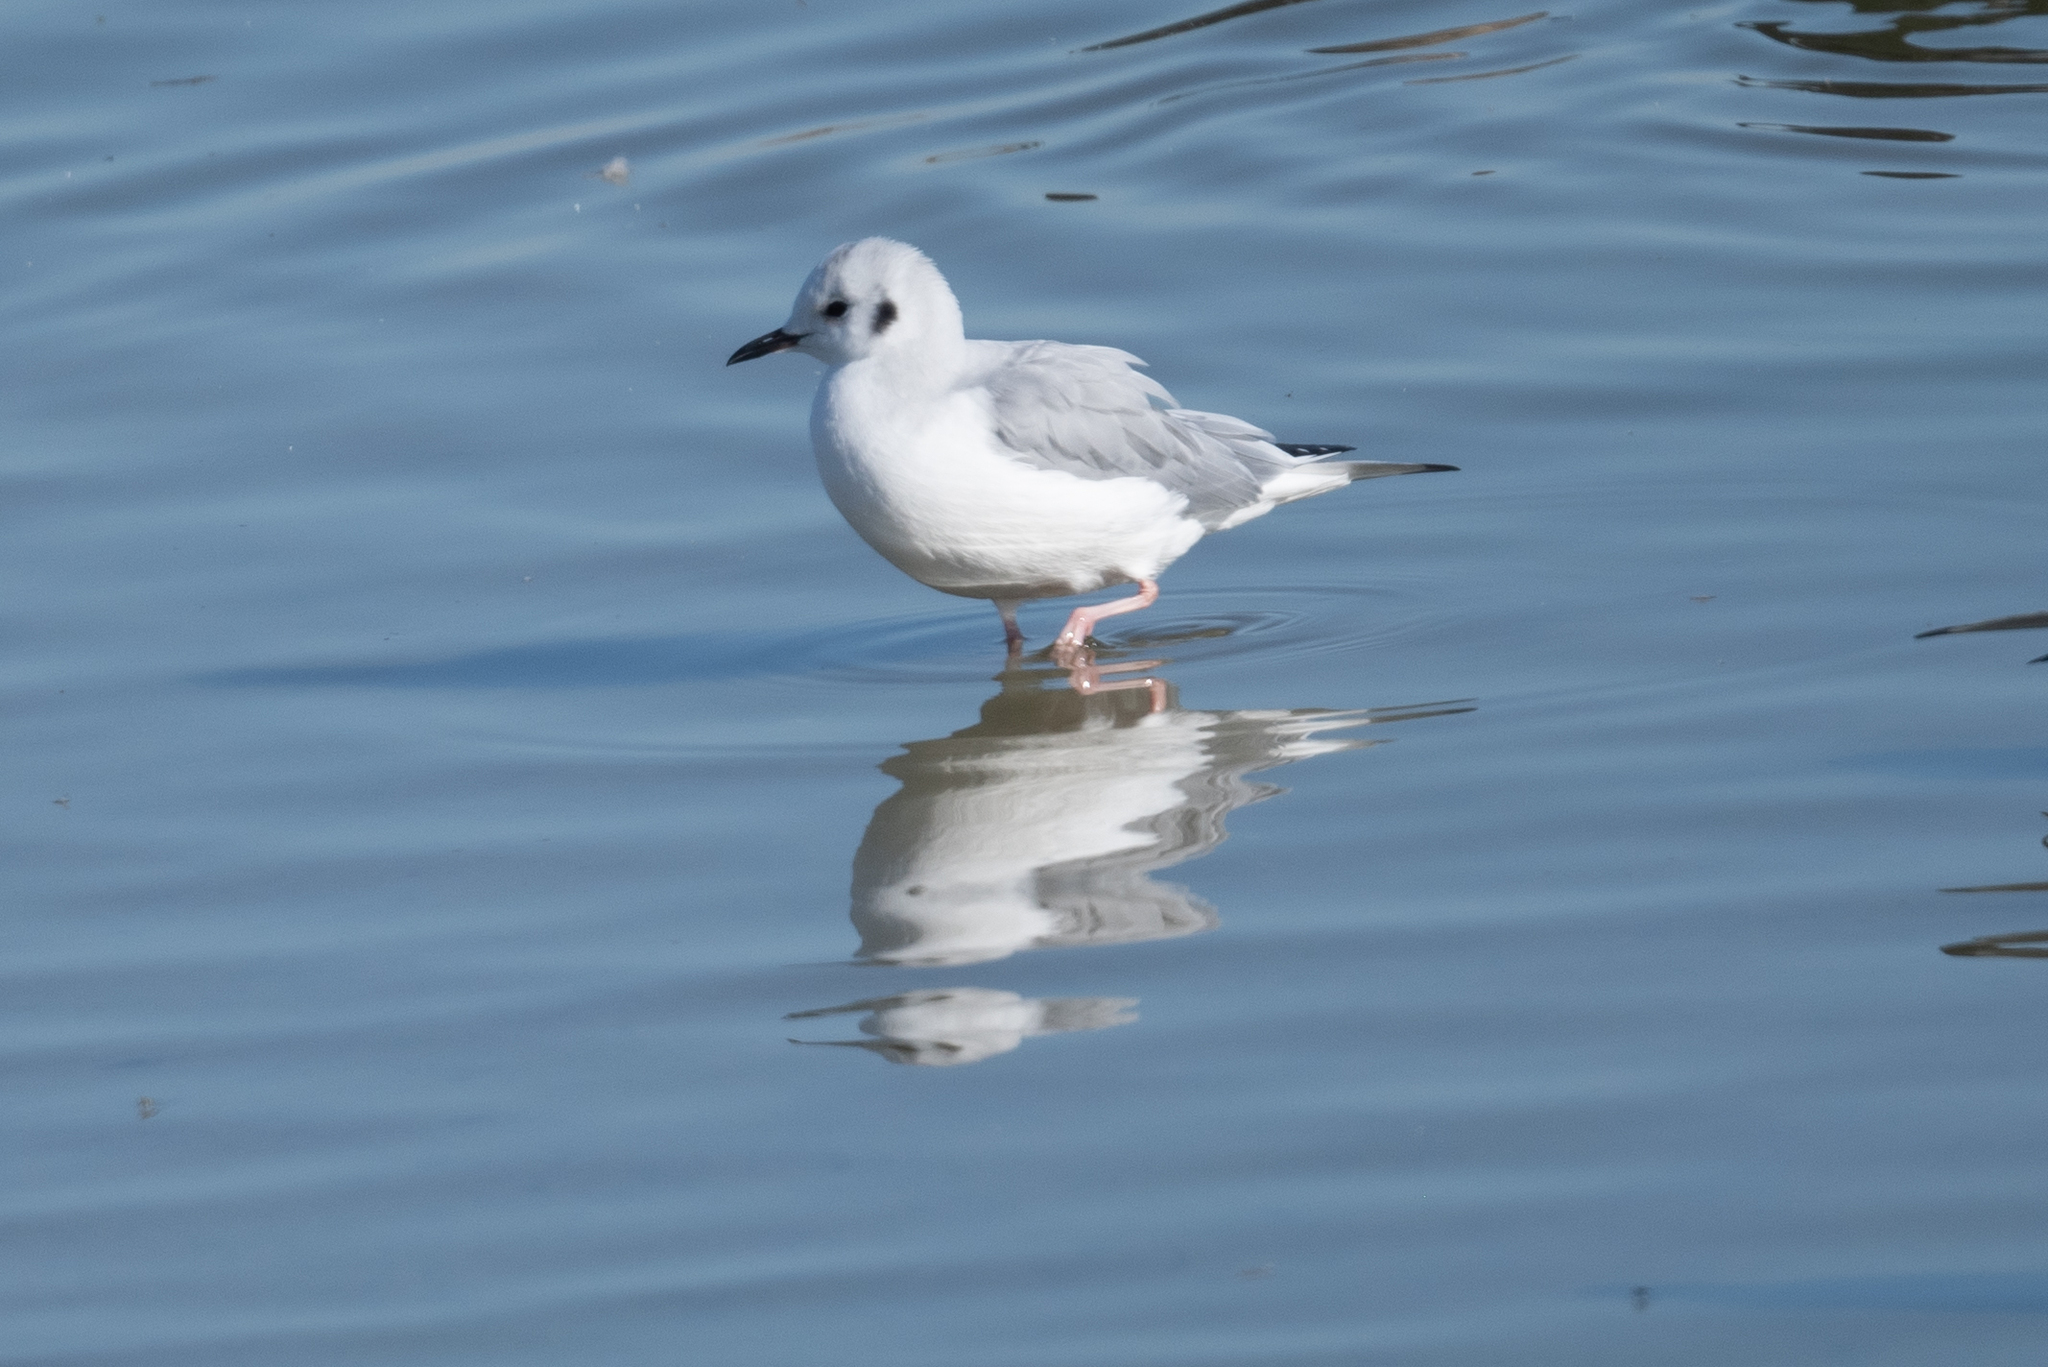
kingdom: Animalia
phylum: Chordata
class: Aves
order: Charadriiformes
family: Laridae
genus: Chroicocephalus
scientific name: Chroicocephalus philadelphia
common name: Bonaparte's gull
